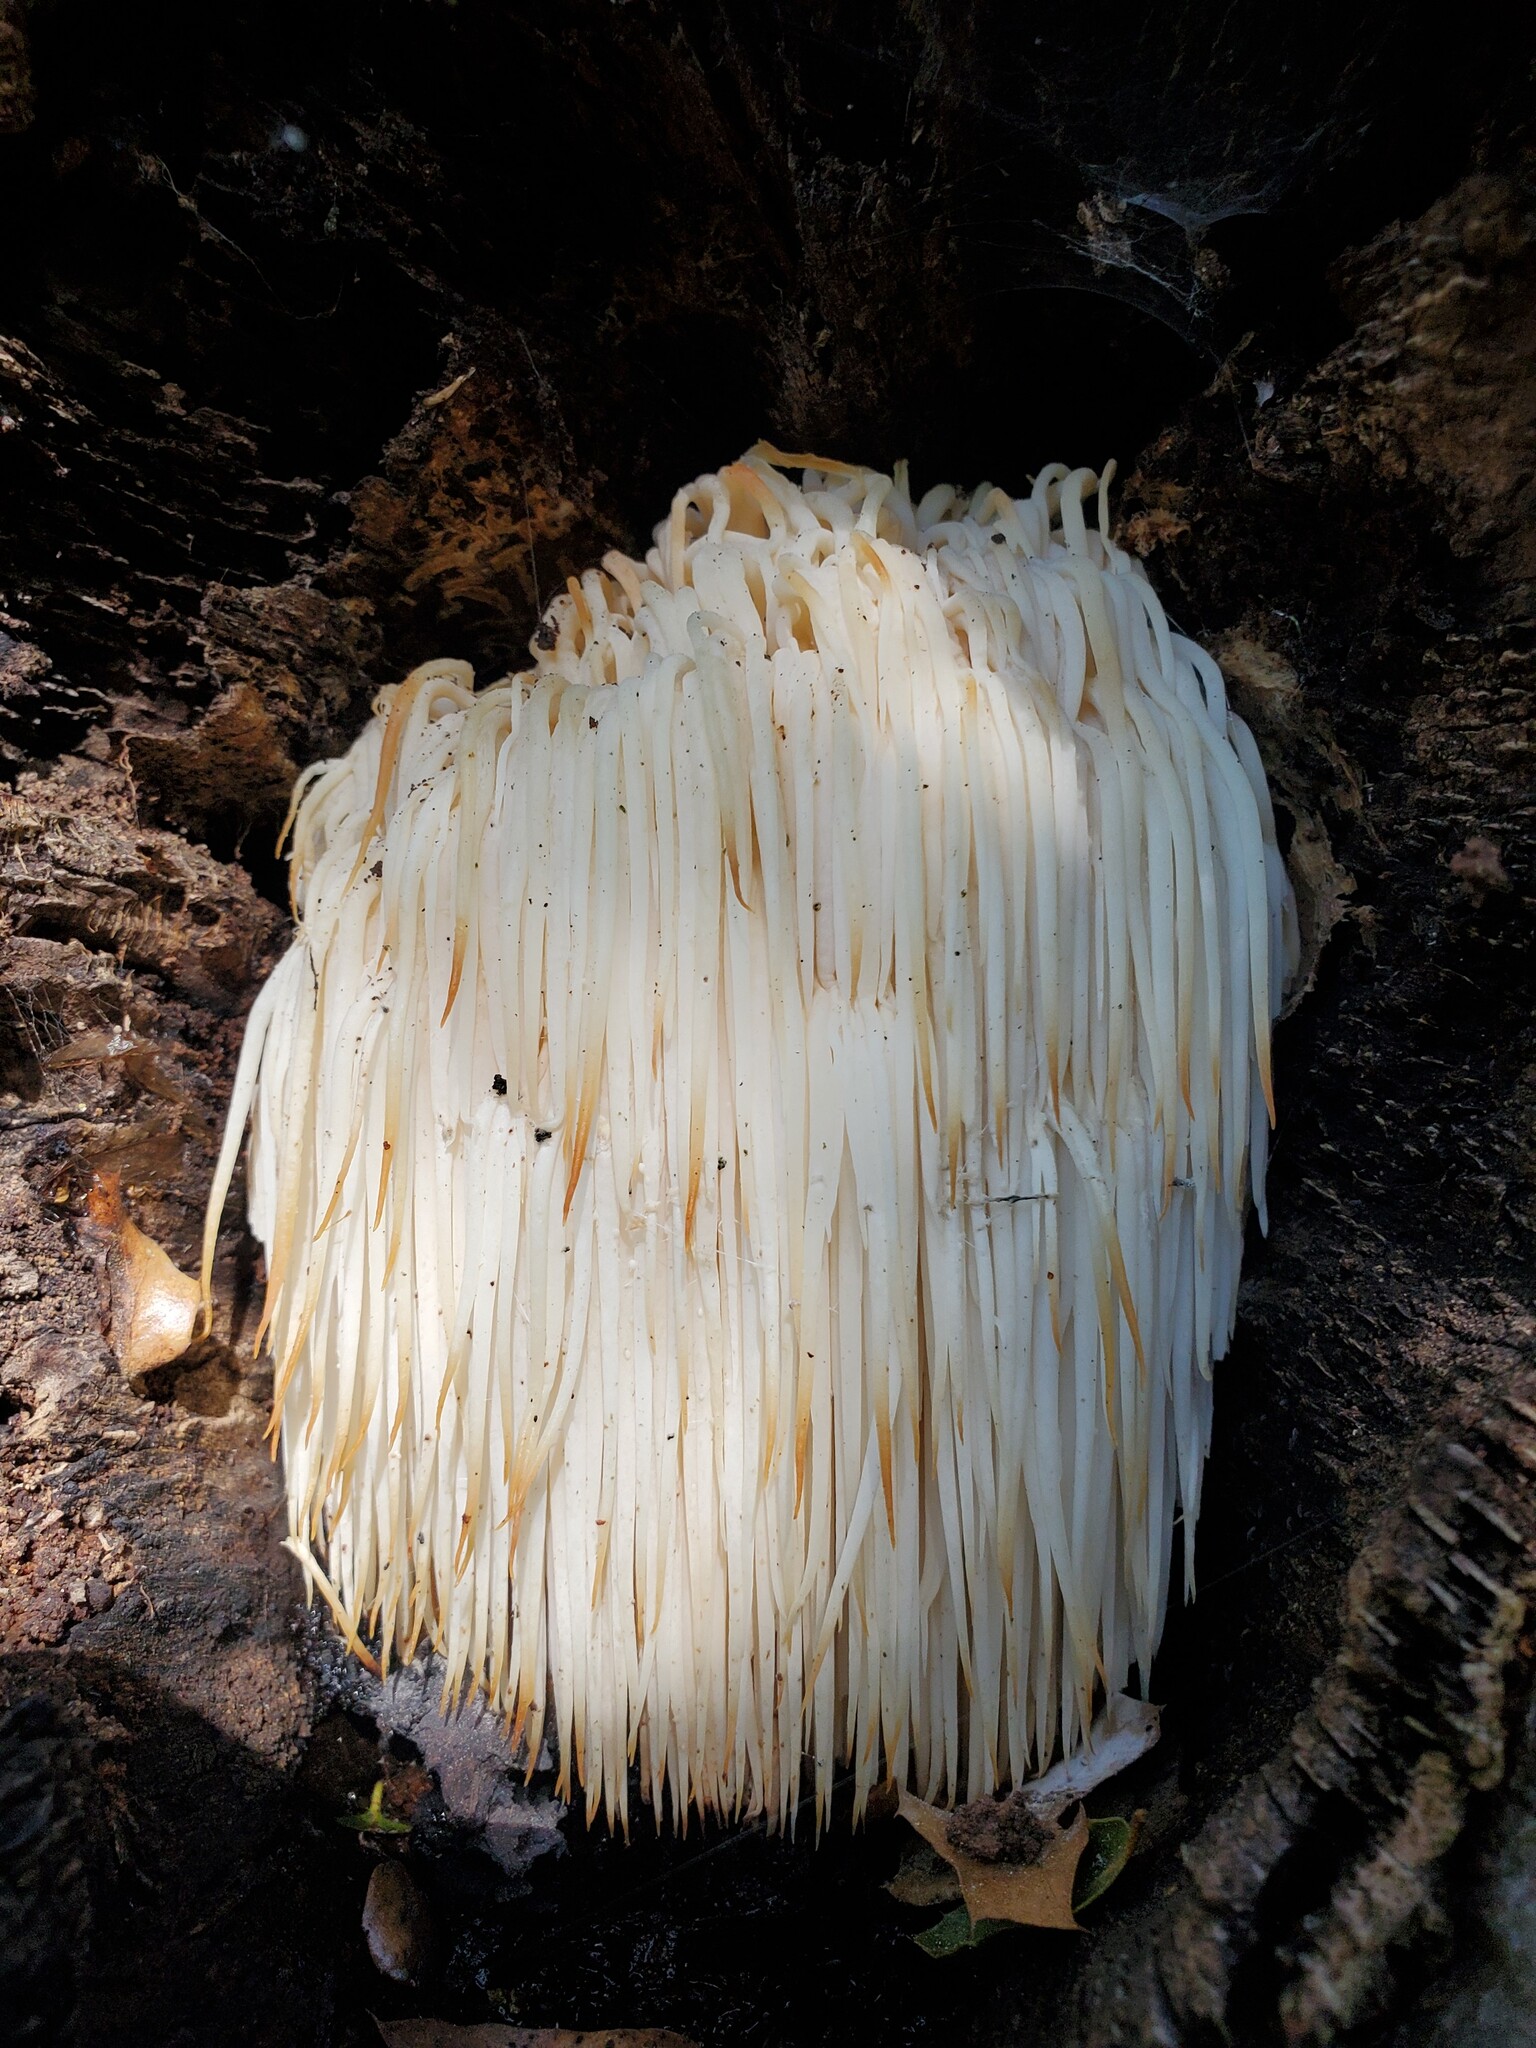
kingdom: Fungi
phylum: Basidiomycota
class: Agaricomycetes
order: Russulales
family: Hericiaceae
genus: Hericium
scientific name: Hericium erinaceus
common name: Bearded tooth
